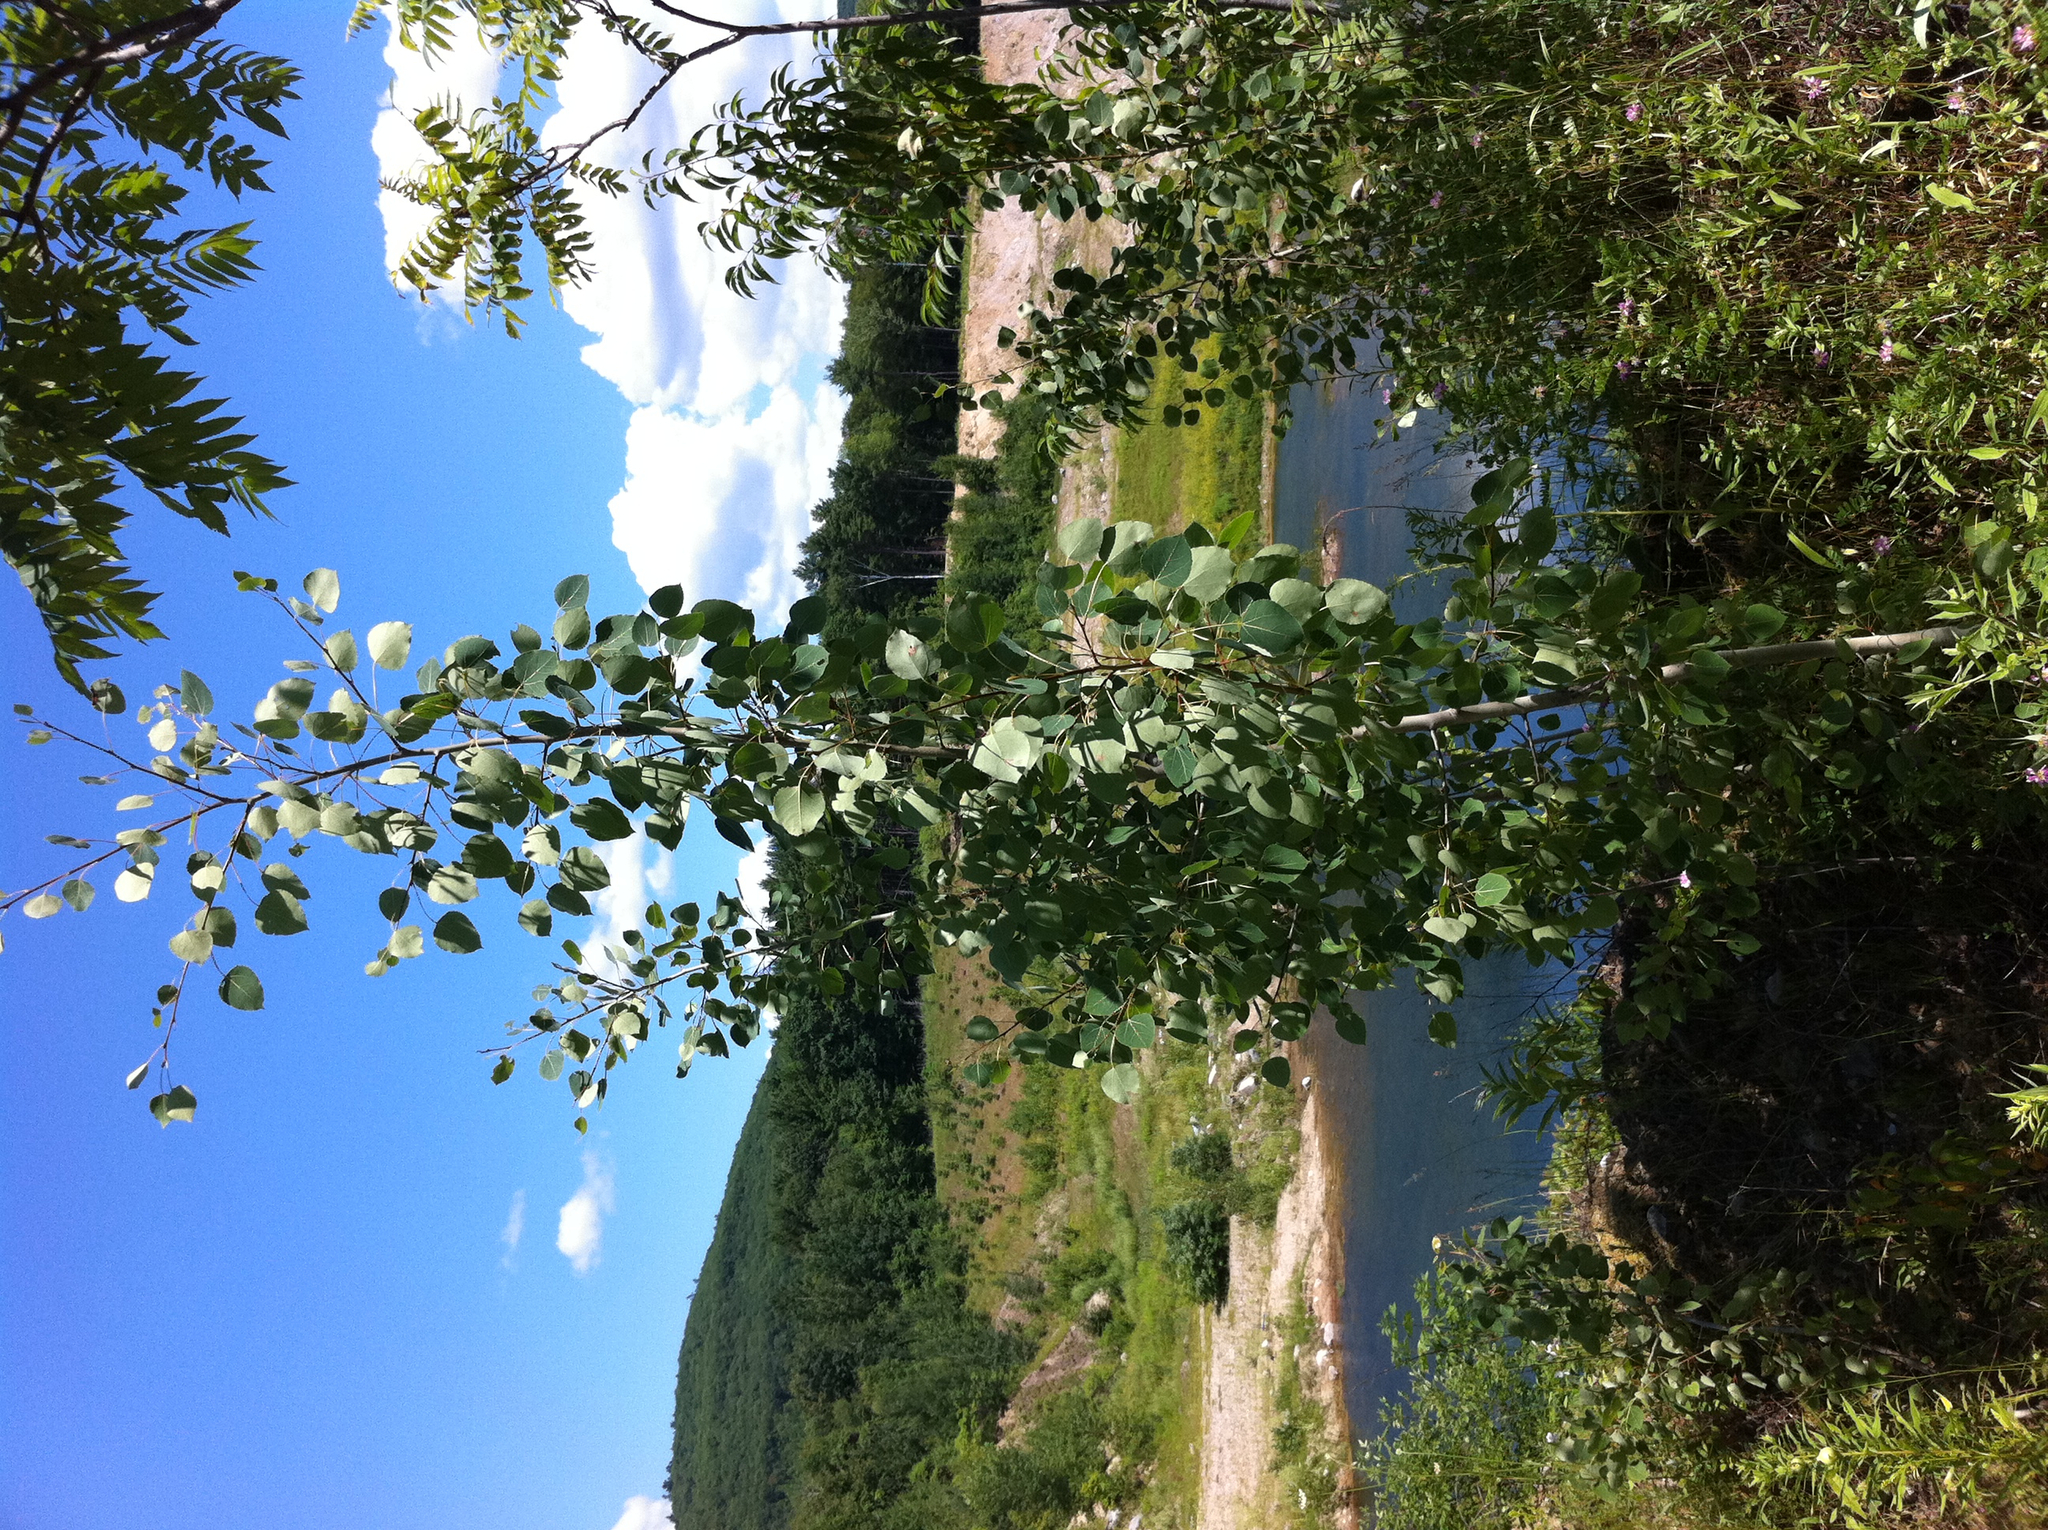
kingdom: Plantae
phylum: Tracheophyta
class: Magnoliopsida
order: Sapindales
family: Anacardiaceae
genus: Rhus
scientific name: Rhus typhina
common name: Staghorn sumac
